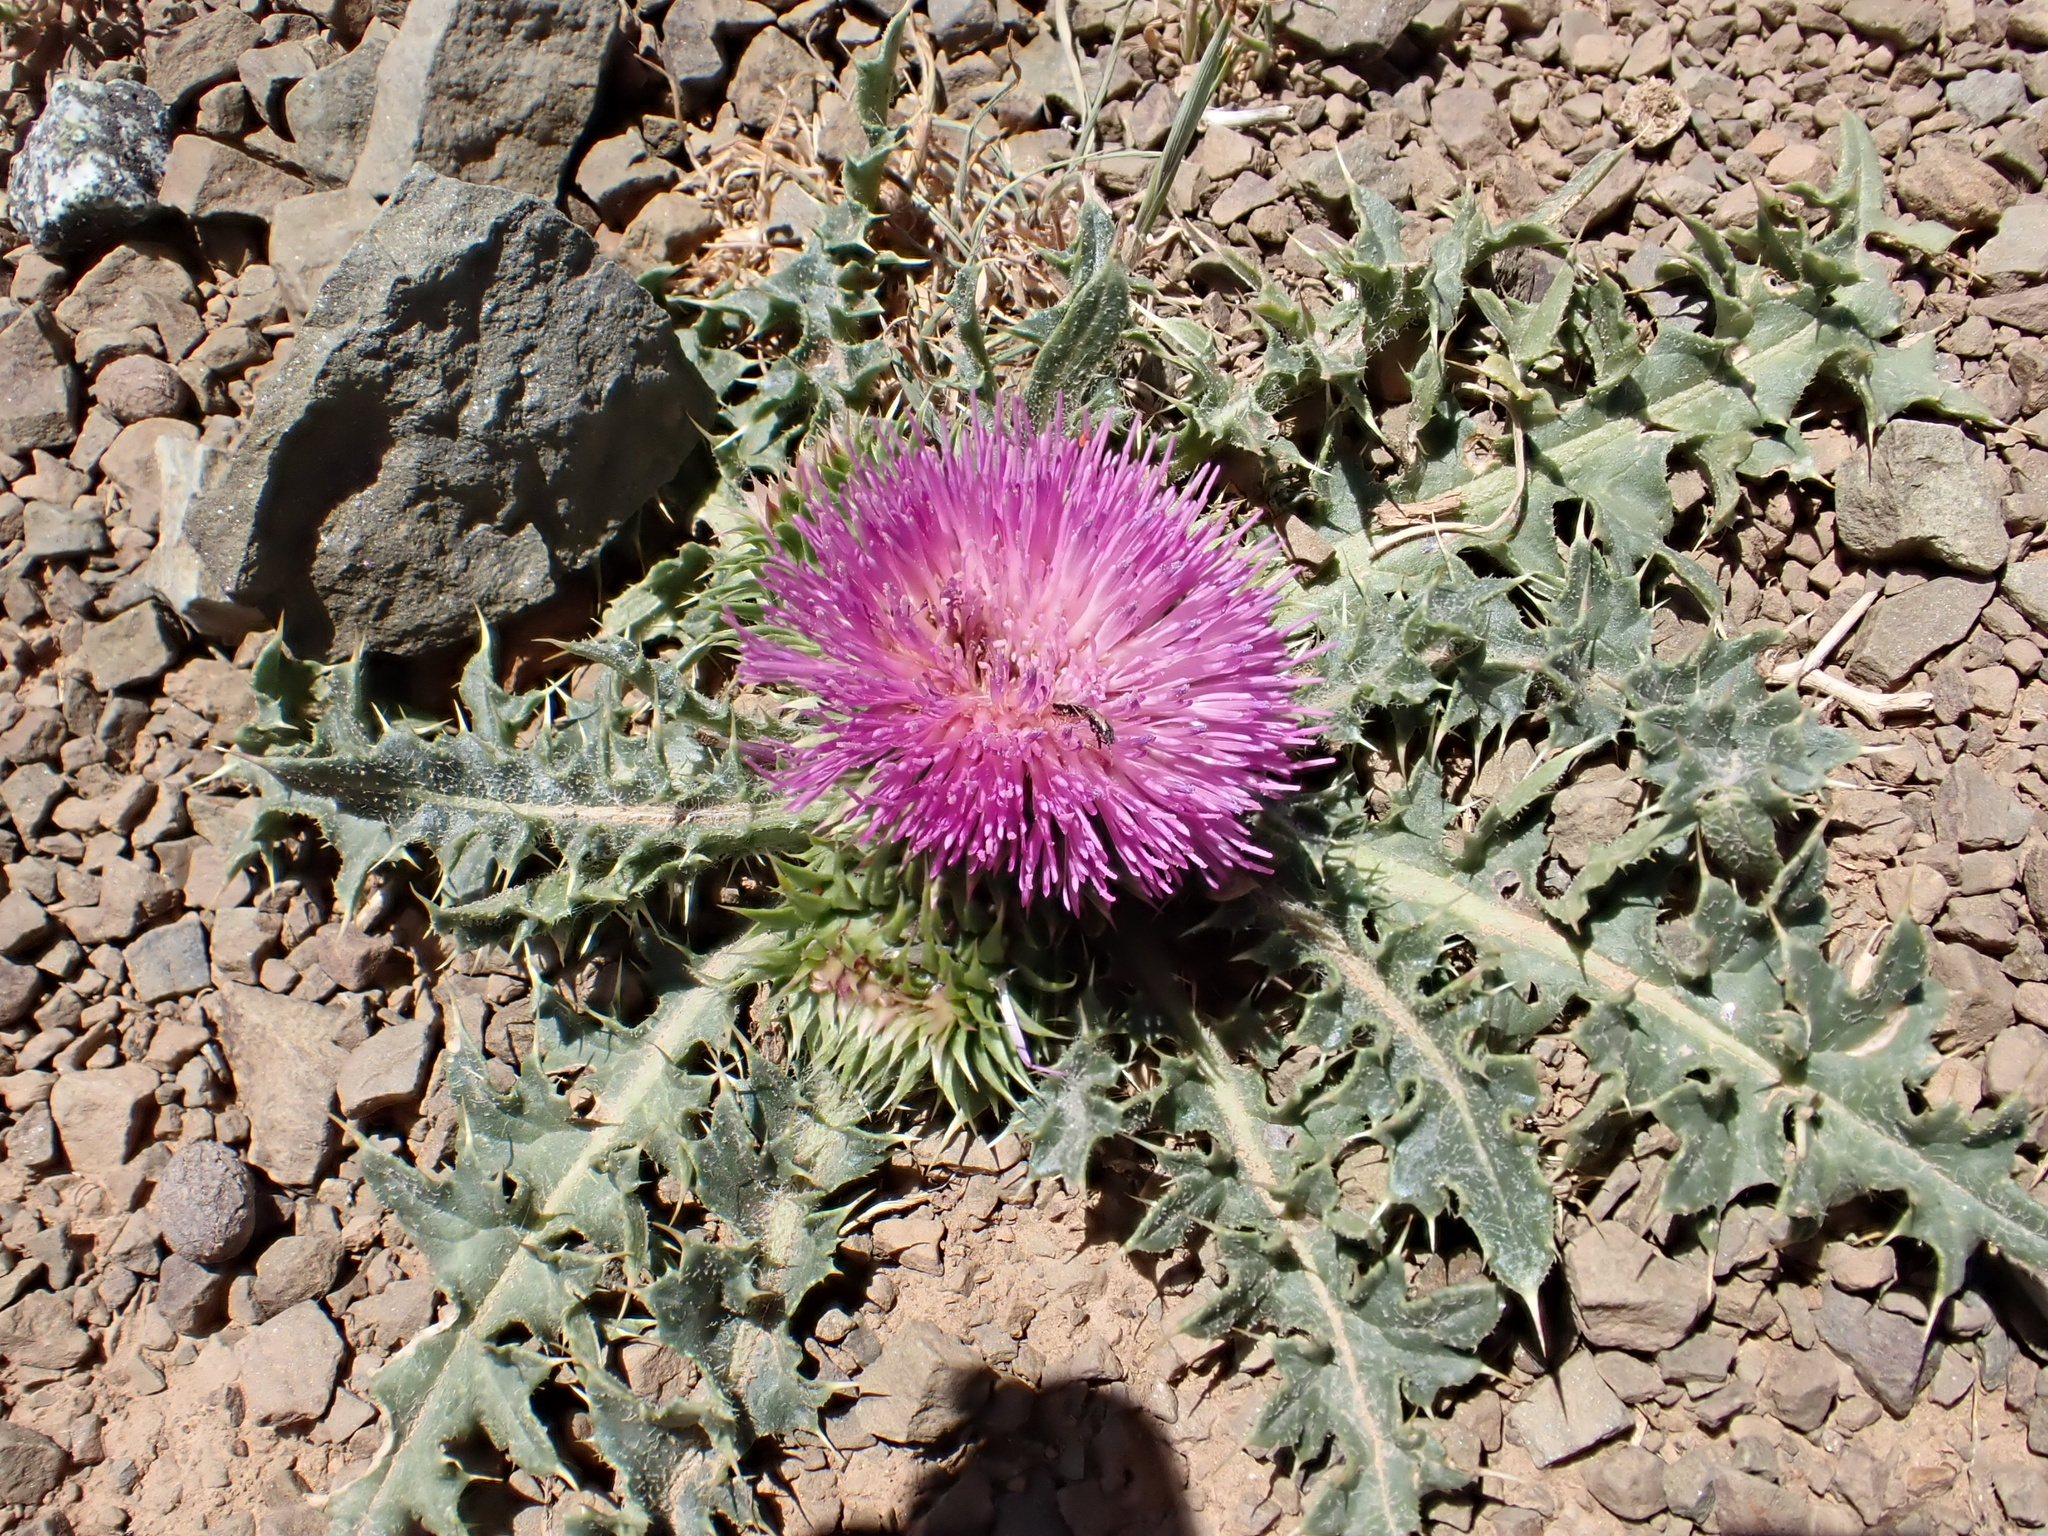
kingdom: Plantae
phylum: Tracheophyta
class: Magnoliopsida
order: Asterales
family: Asteraceae
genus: Carduus
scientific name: Carduus ballii
